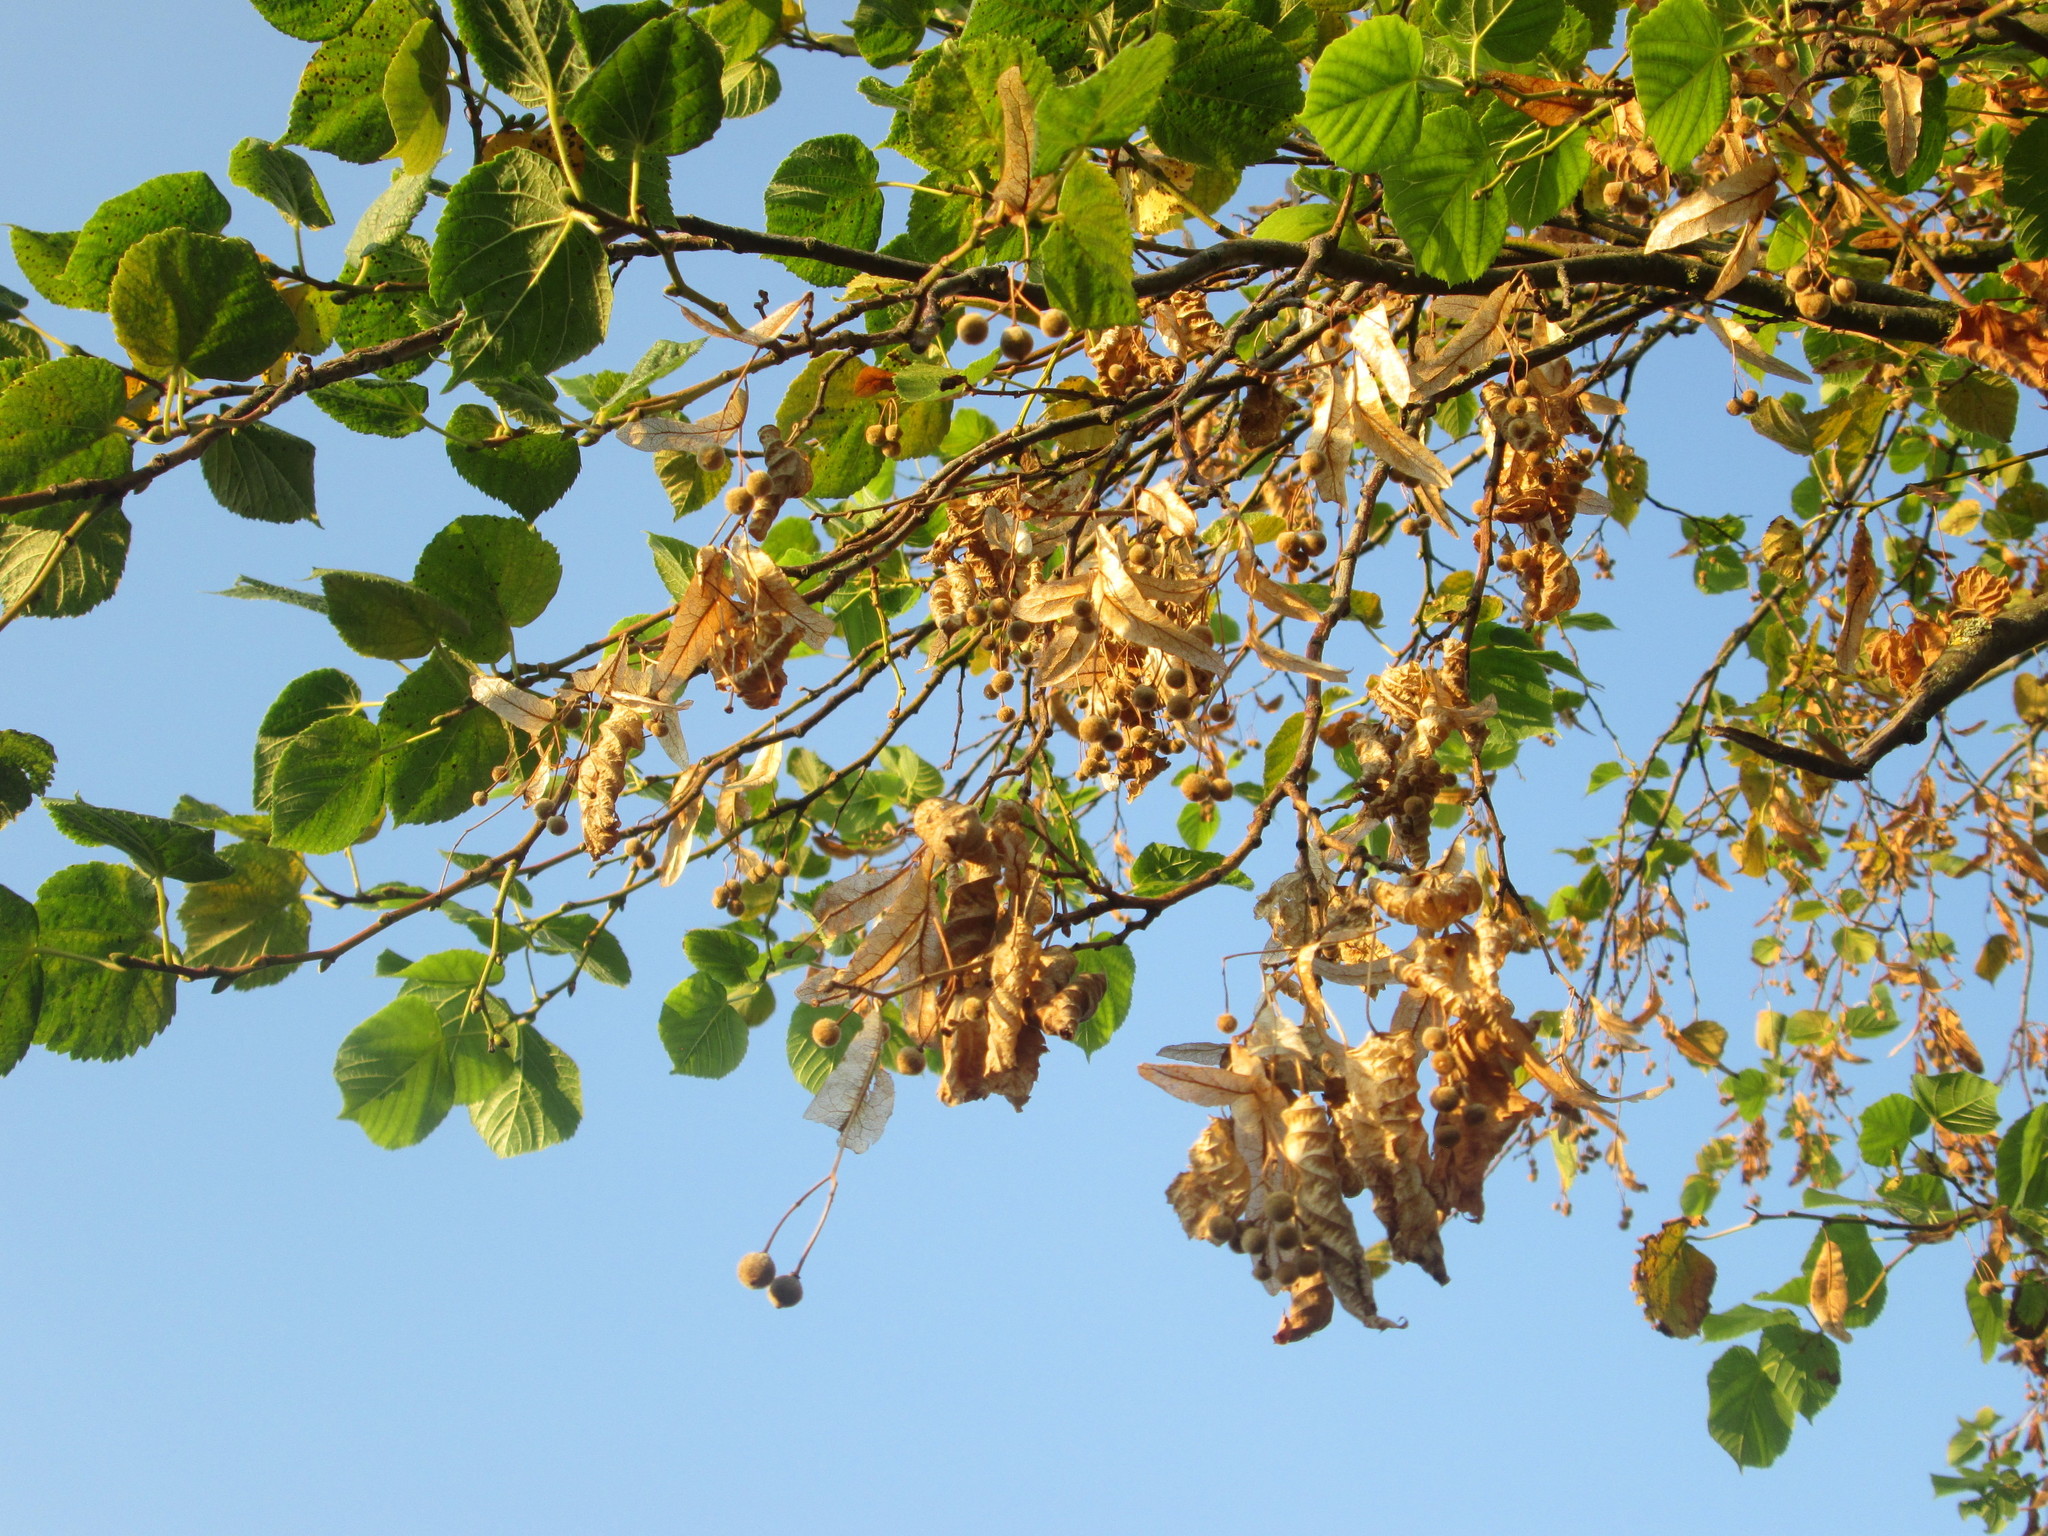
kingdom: Plantae
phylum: Tracheophyta
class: Magnoliopsida
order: Malvales
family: Malvaceae
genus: Tilia
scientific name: Tilia cordata
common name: Small-leaved lime
